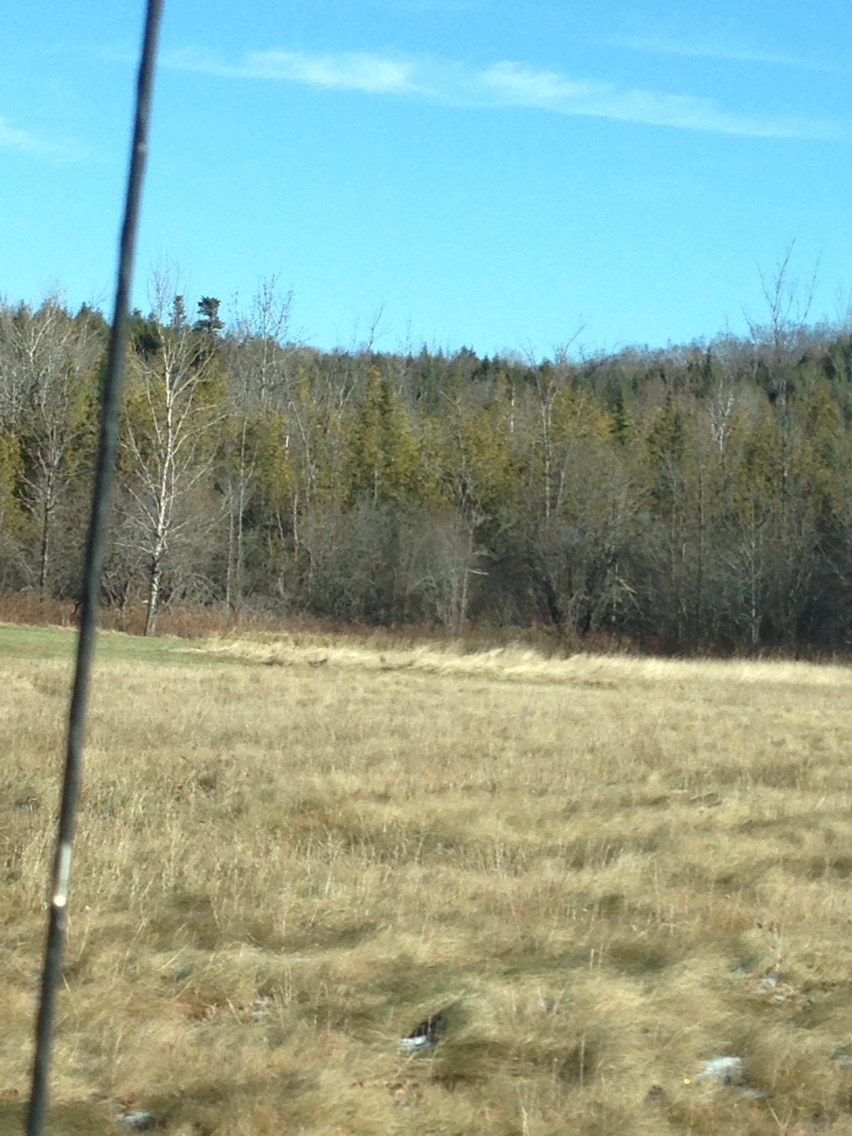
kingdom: Plantae
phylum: Tracheophyta
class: Pinopsida
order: Pinales
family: Cupressaceae
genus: Thuja
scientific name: Thuja occidentalis
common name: Northern white-cedar
